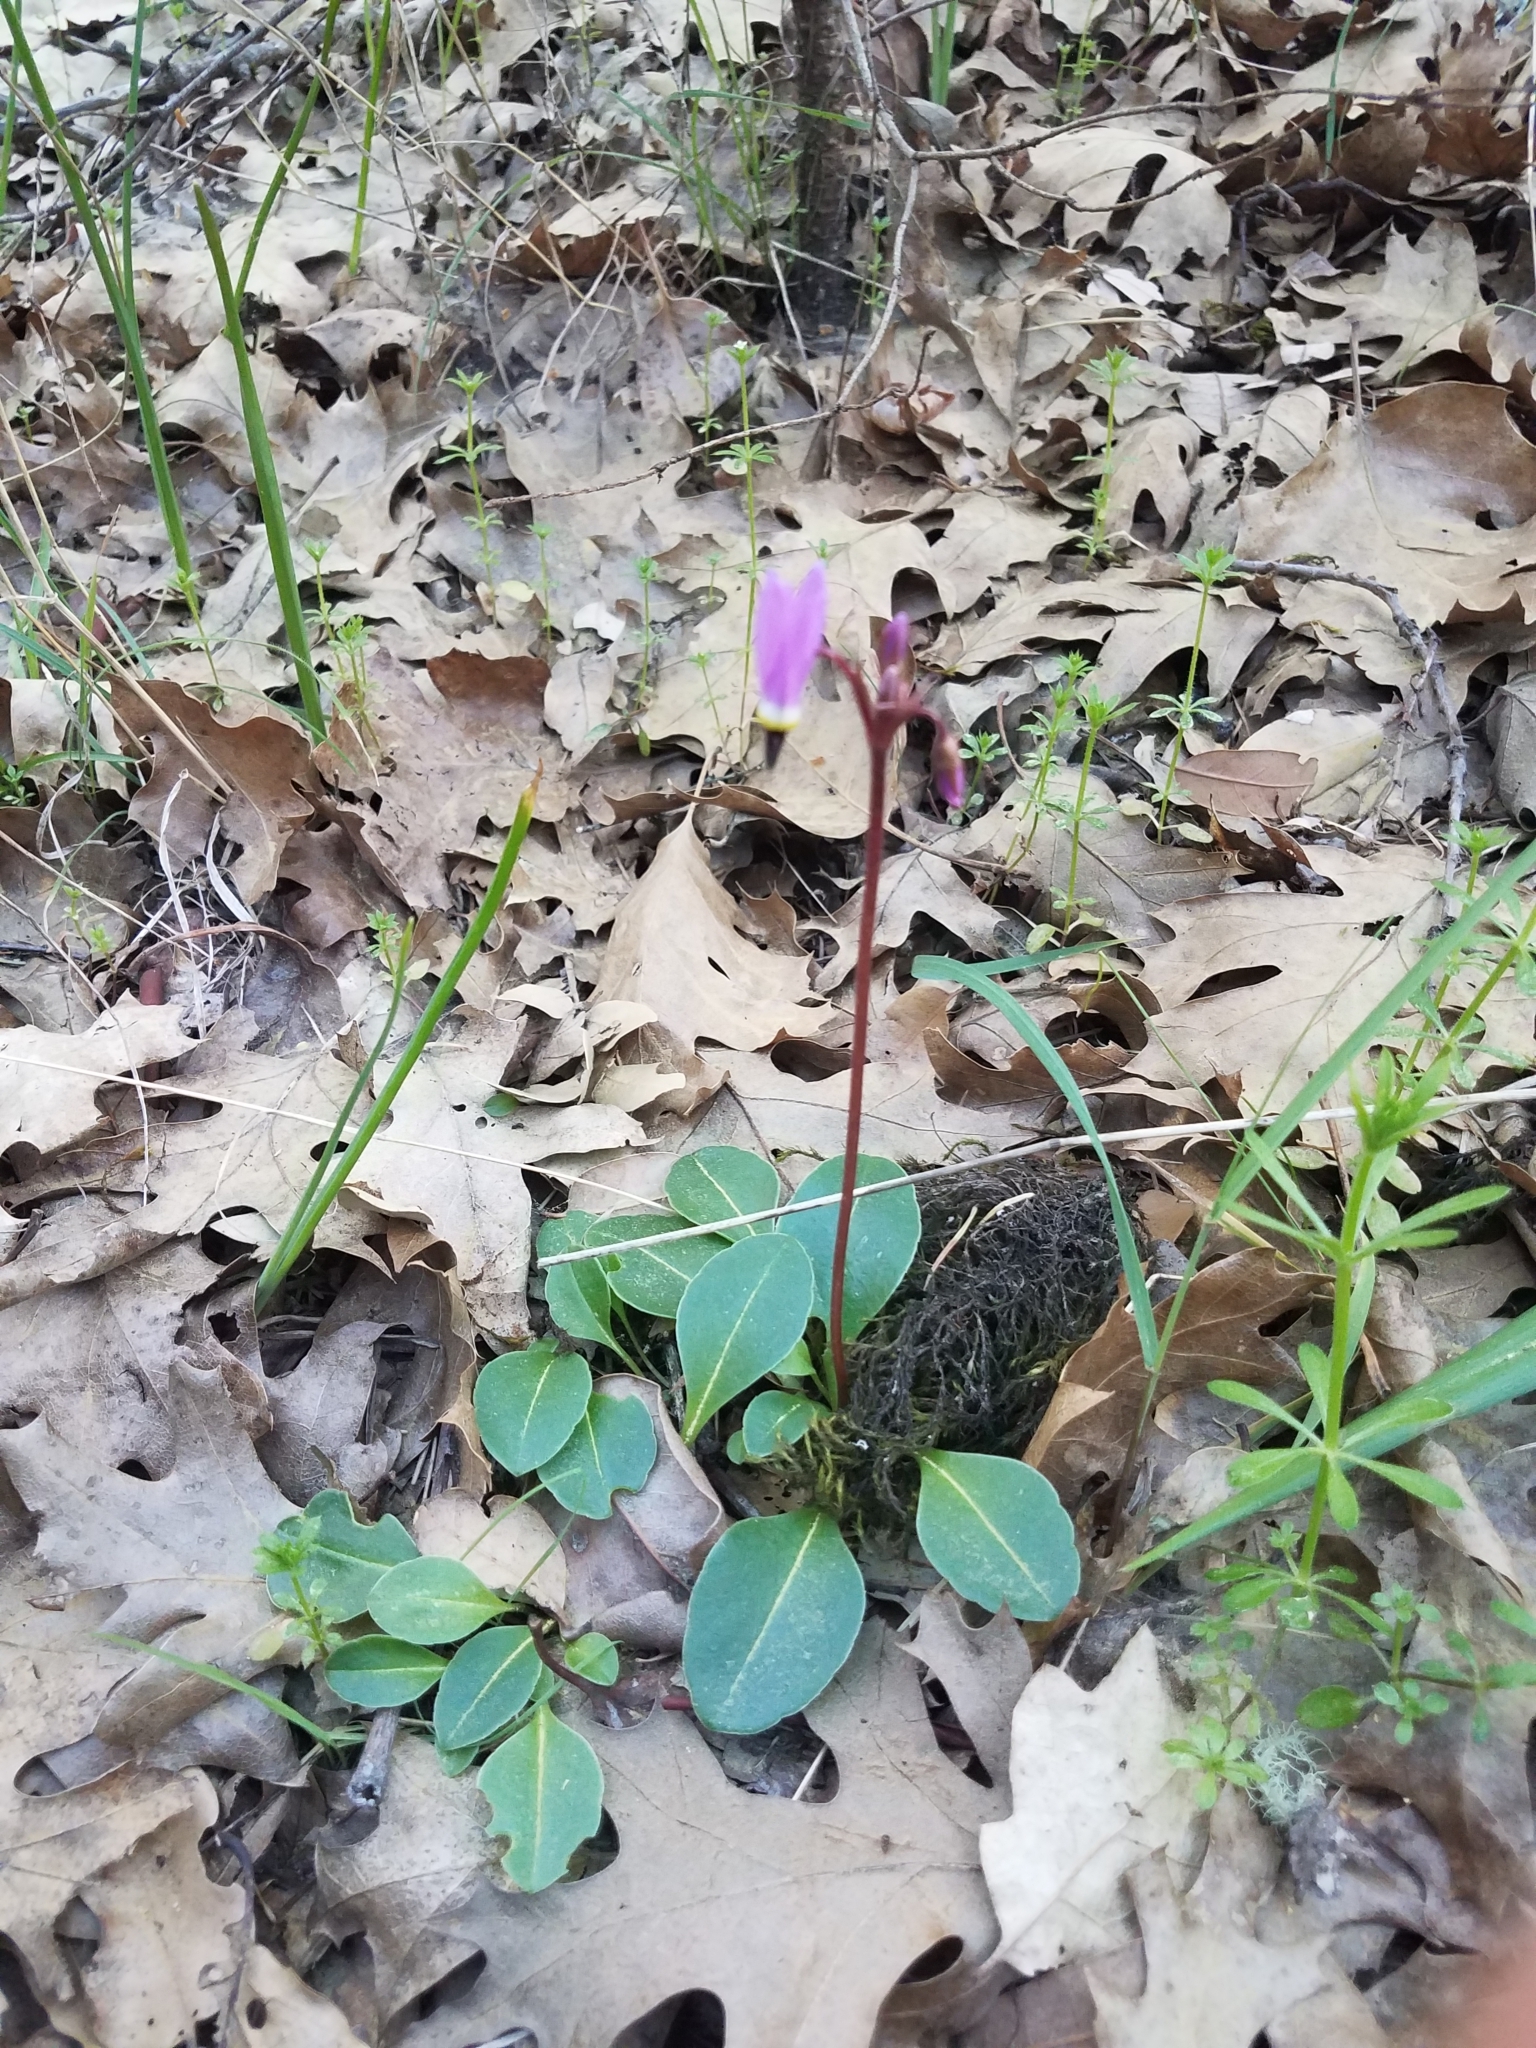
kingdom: Plantae
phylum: Tracheophyta
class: Magnoliopsida
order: Ericales
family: Primulaceae
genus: Dodecatheon
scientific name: Dodecatheon hendersonii
